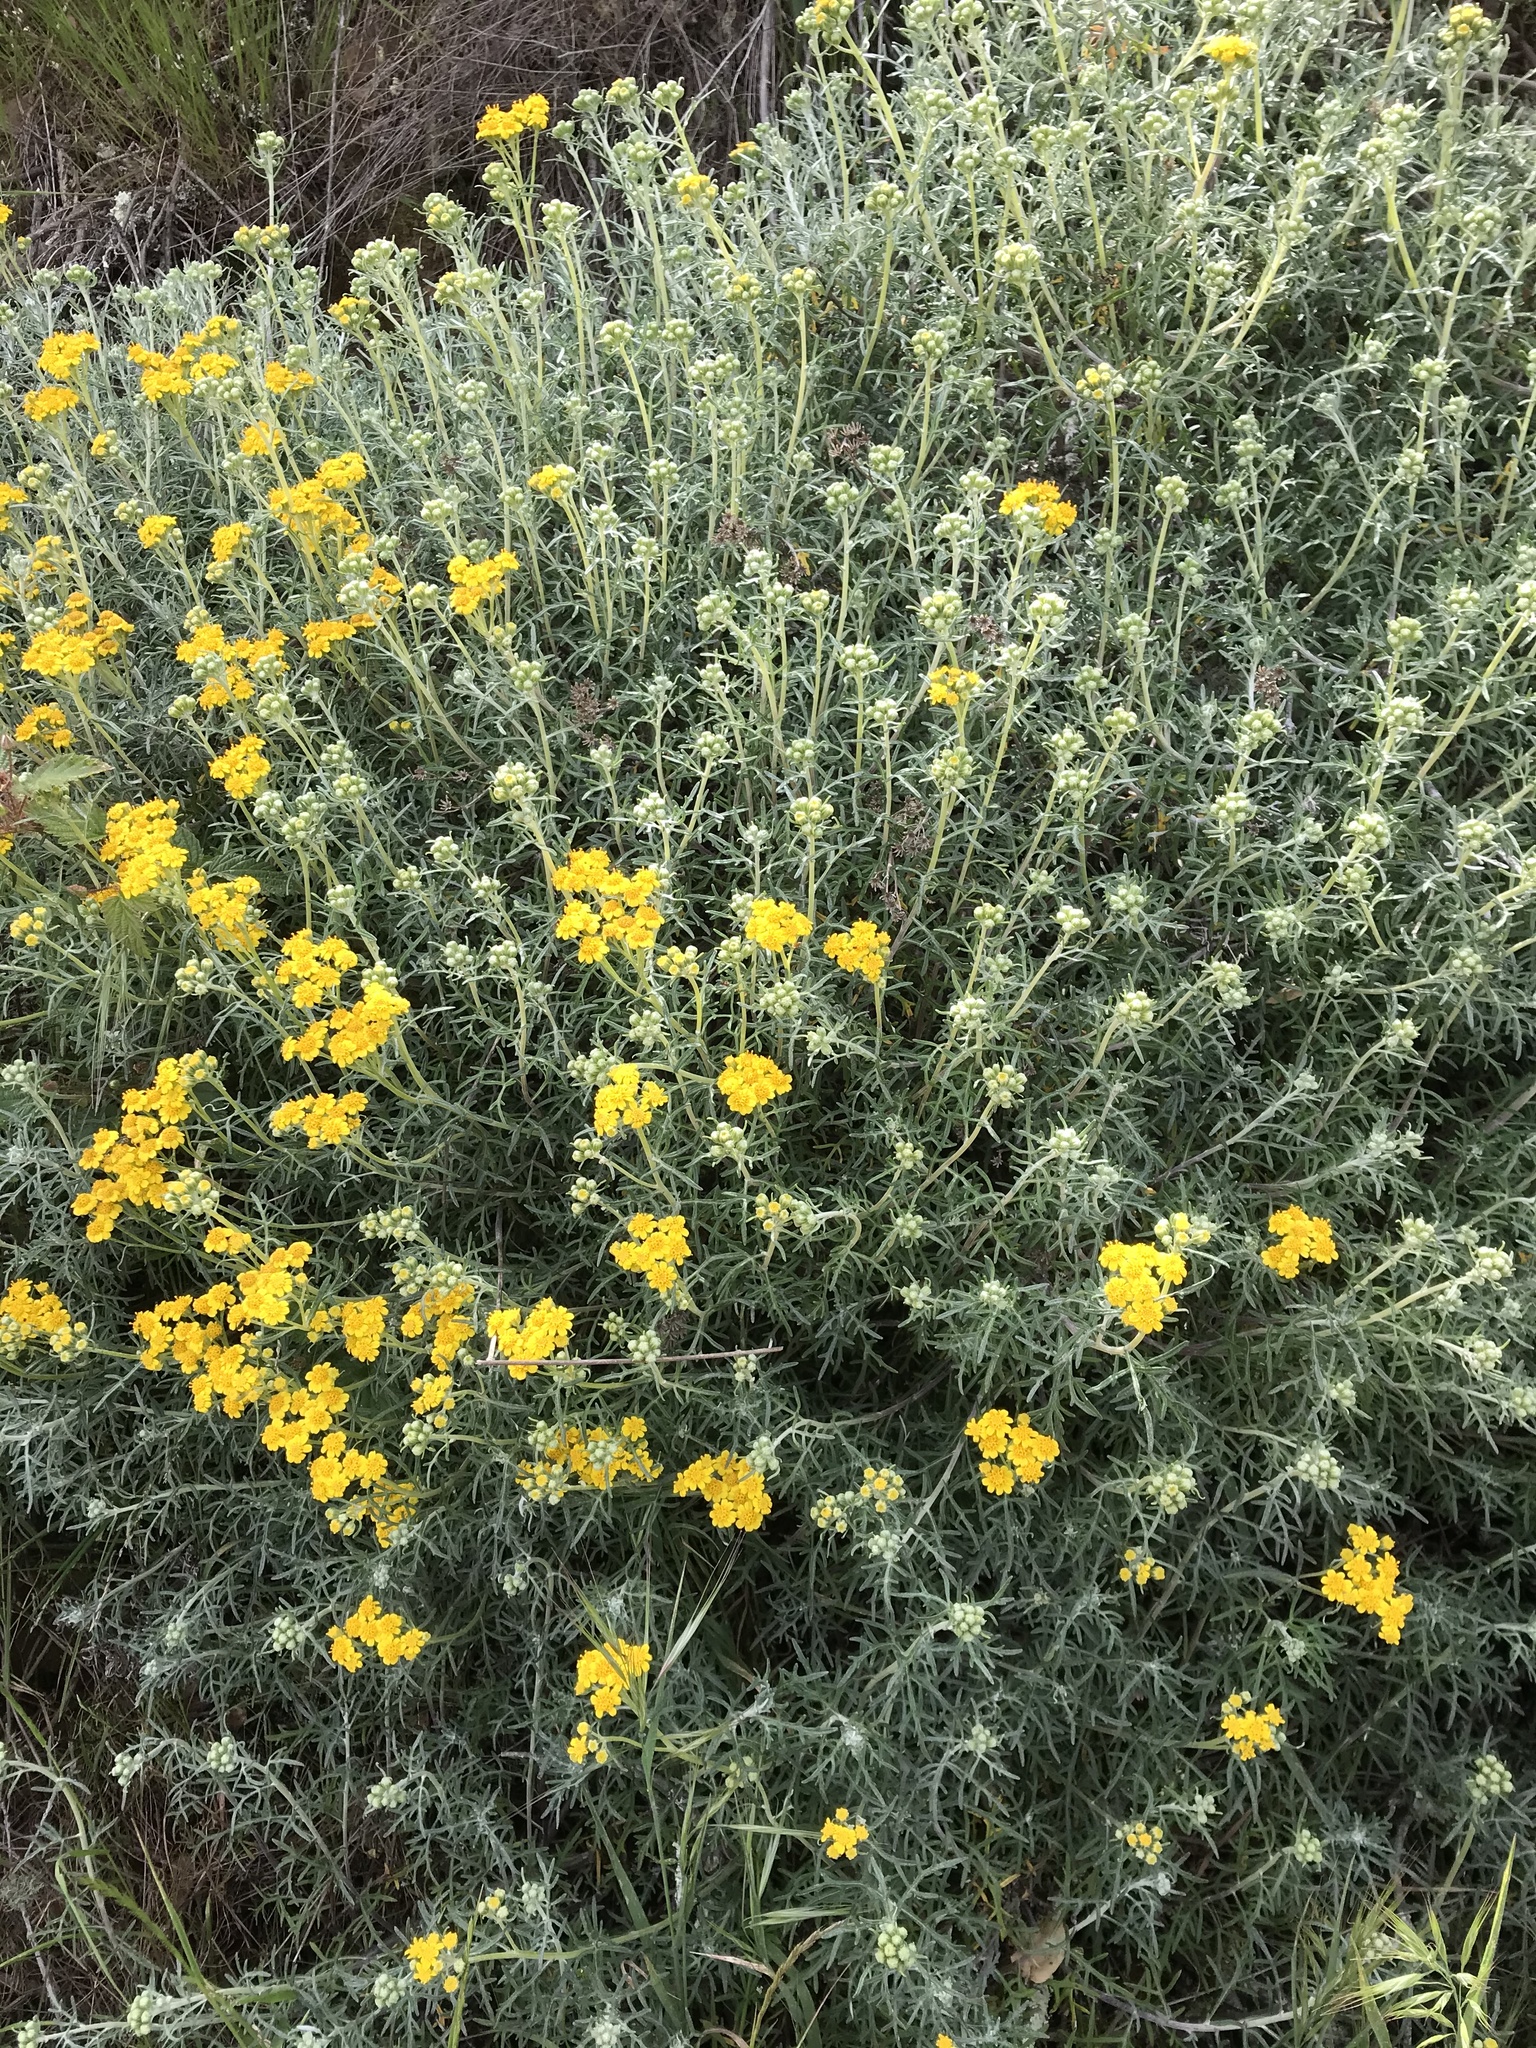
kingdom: Plantae
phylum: Tracheophyta
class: Magnoliopsida
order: Asterales
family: Asteraceae
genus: Eriophyllum
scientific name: Eriophyllum staechadifolium
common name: Lizardtail
